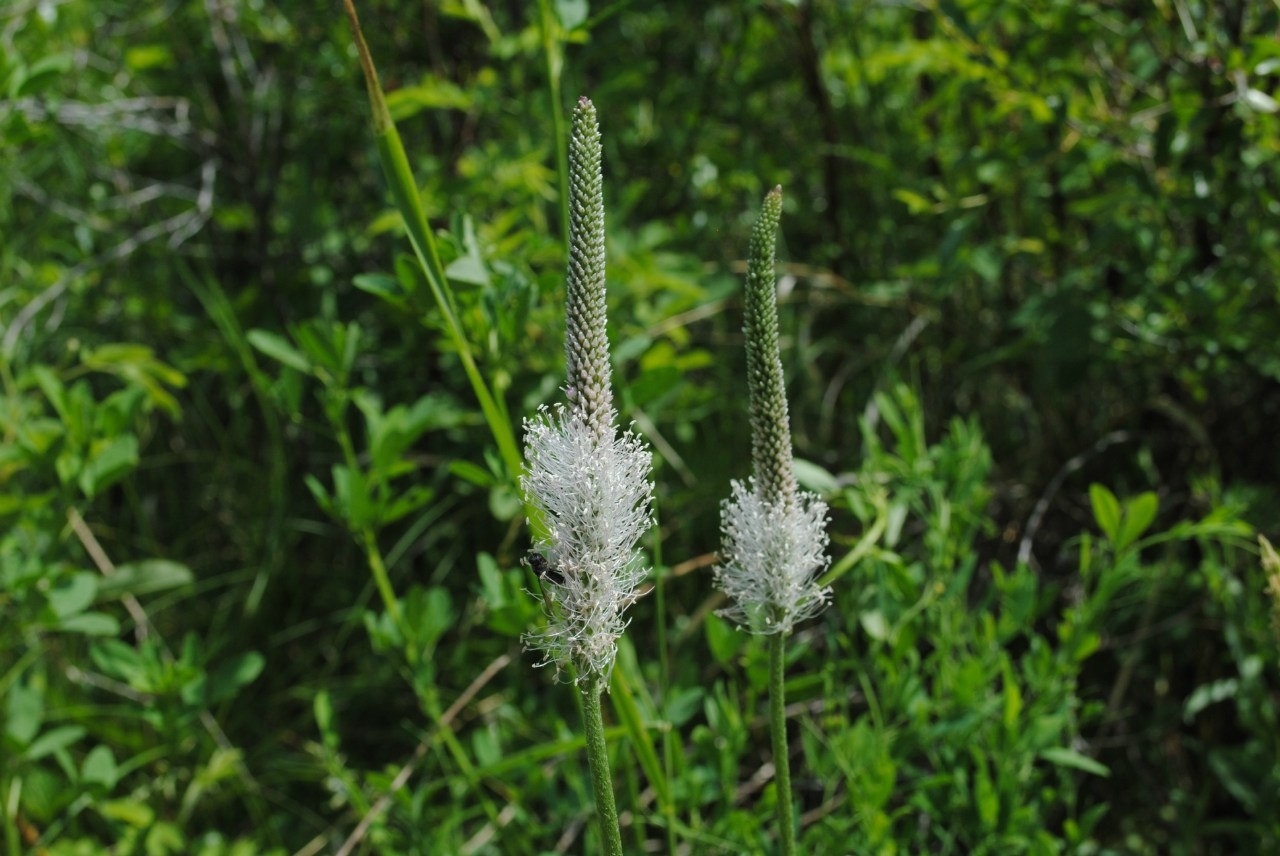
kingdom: Plantae
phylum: Tracheophyta
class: Magnoliopsida
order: Lamiales
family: Plantaginaceae
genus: Plantago
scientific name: Plantago media
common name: Hoary plantain
